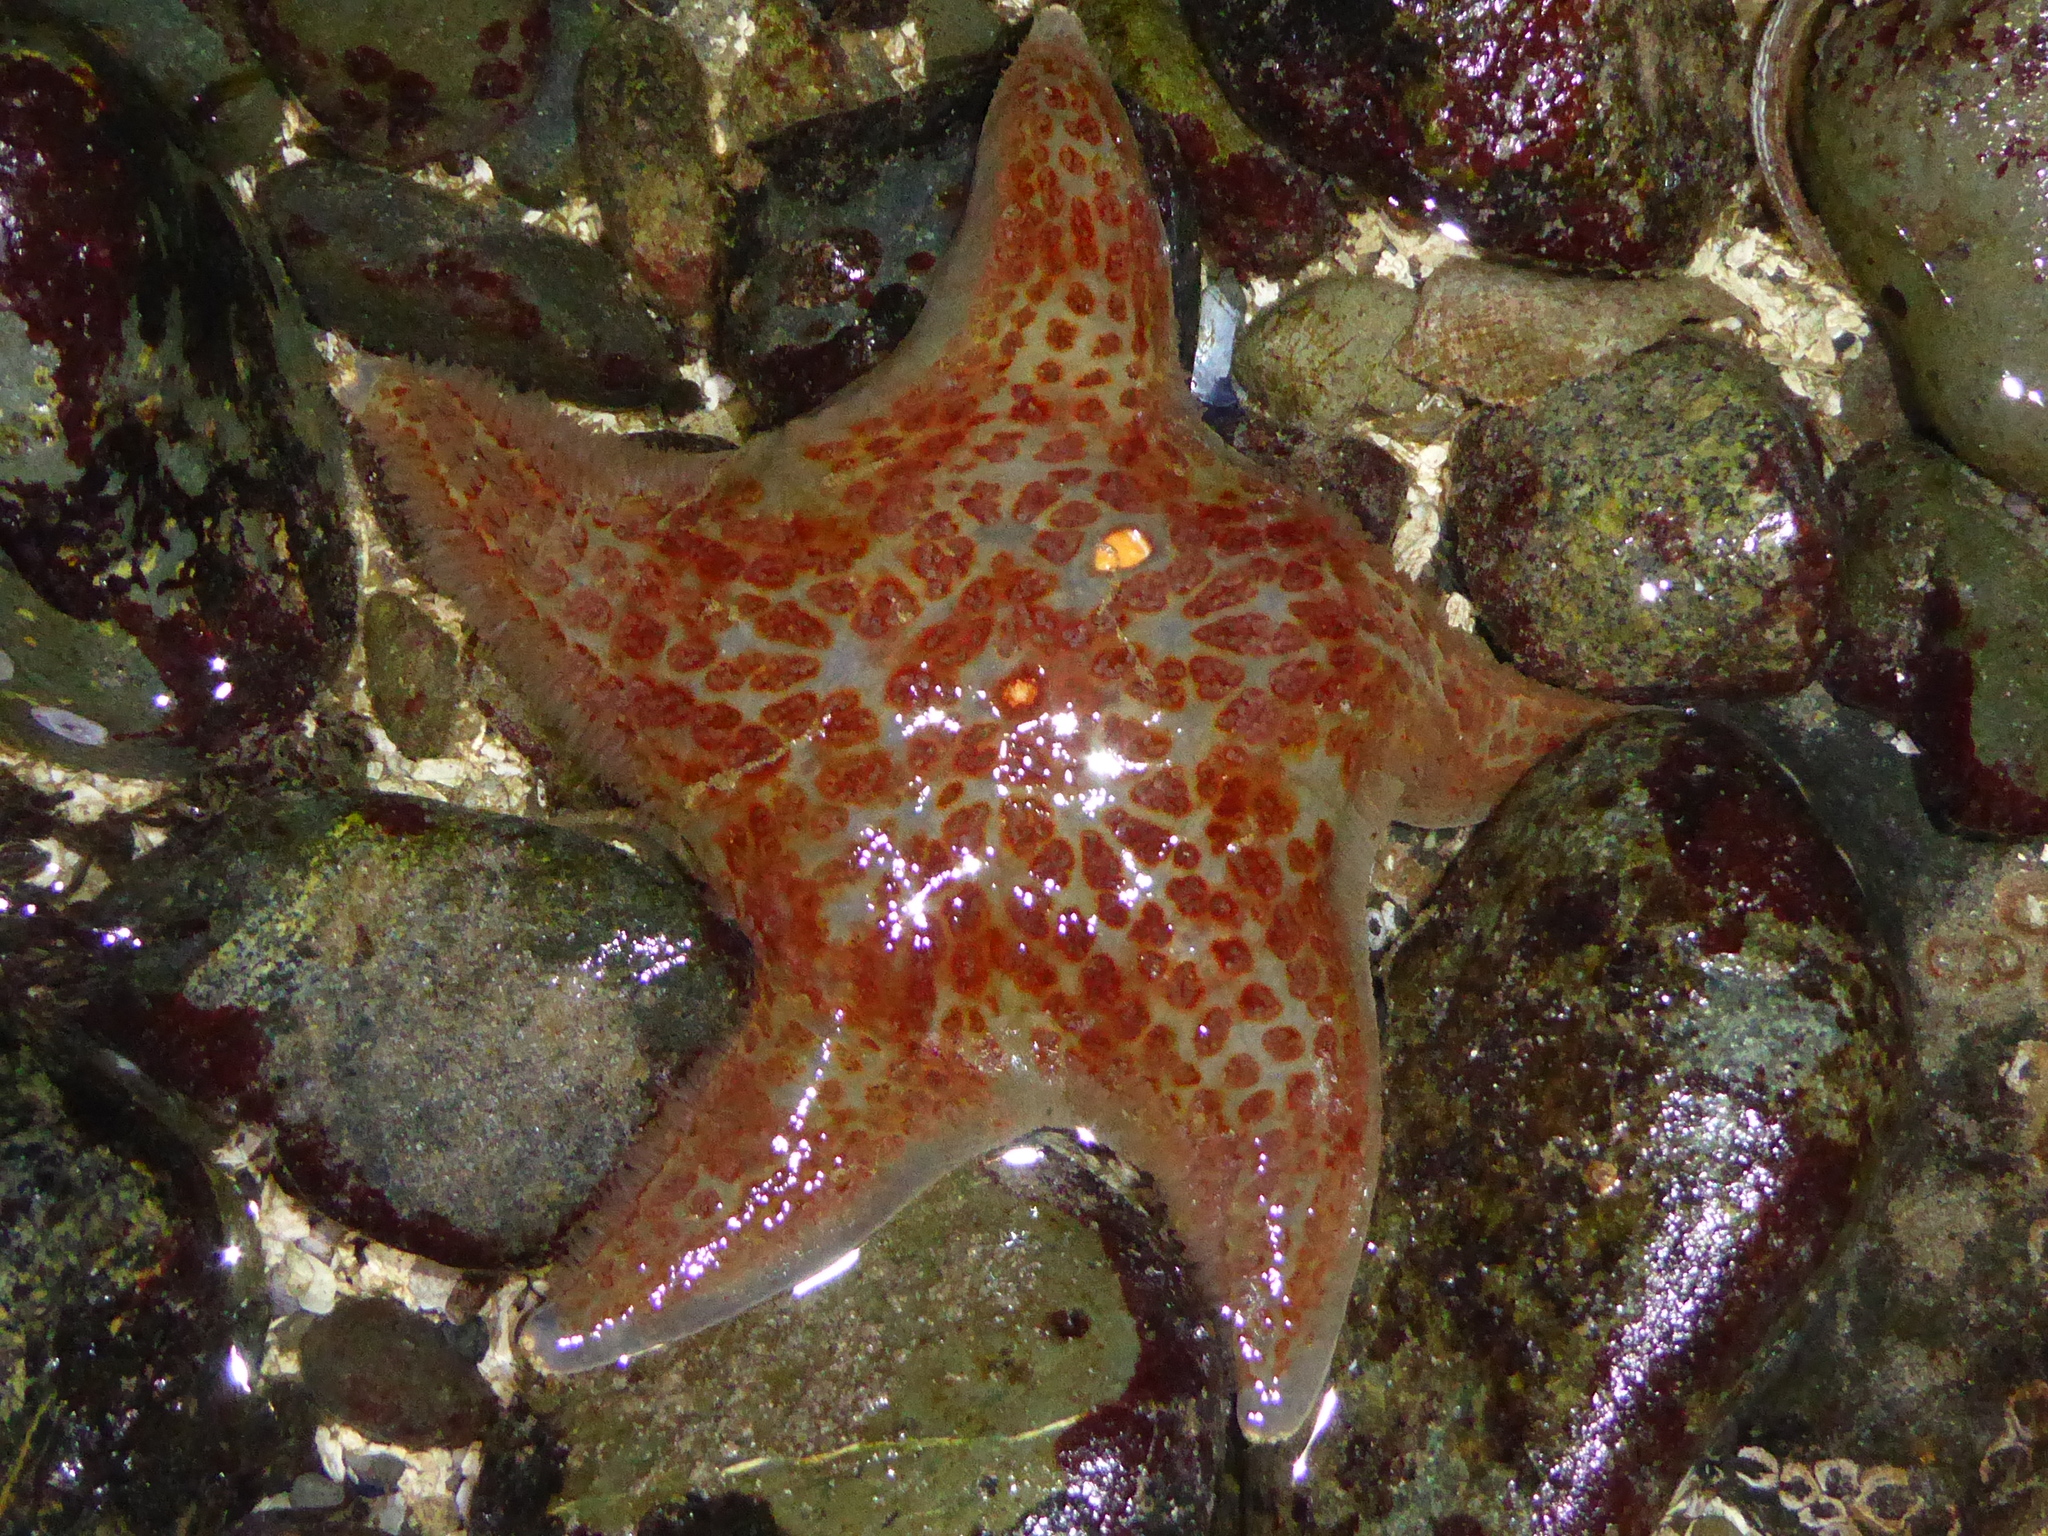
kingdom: Animalia
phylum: Echinodermata
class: Asteroidea
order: Valvatida
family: Asteropseidae
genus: Dermasterias
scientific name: Dermasterias imbricata
